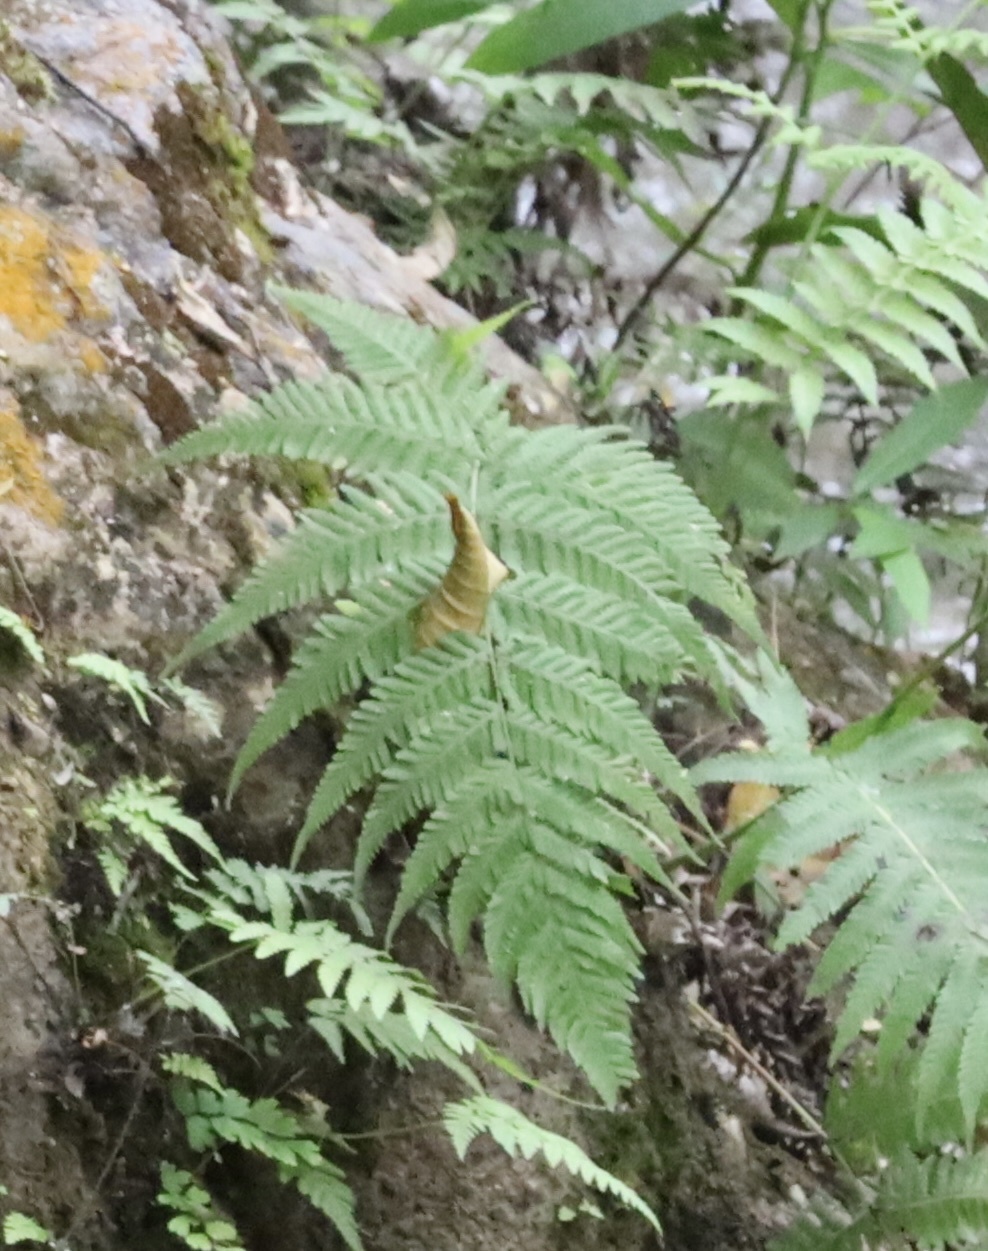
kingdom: Plantae
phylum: Tracheophyta
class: Polypodiopsida
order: Polypodiales
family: Thelypteridaceae
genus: Macrothelypteris
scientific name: Macrothelypteris torresiana
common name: Swordfern
